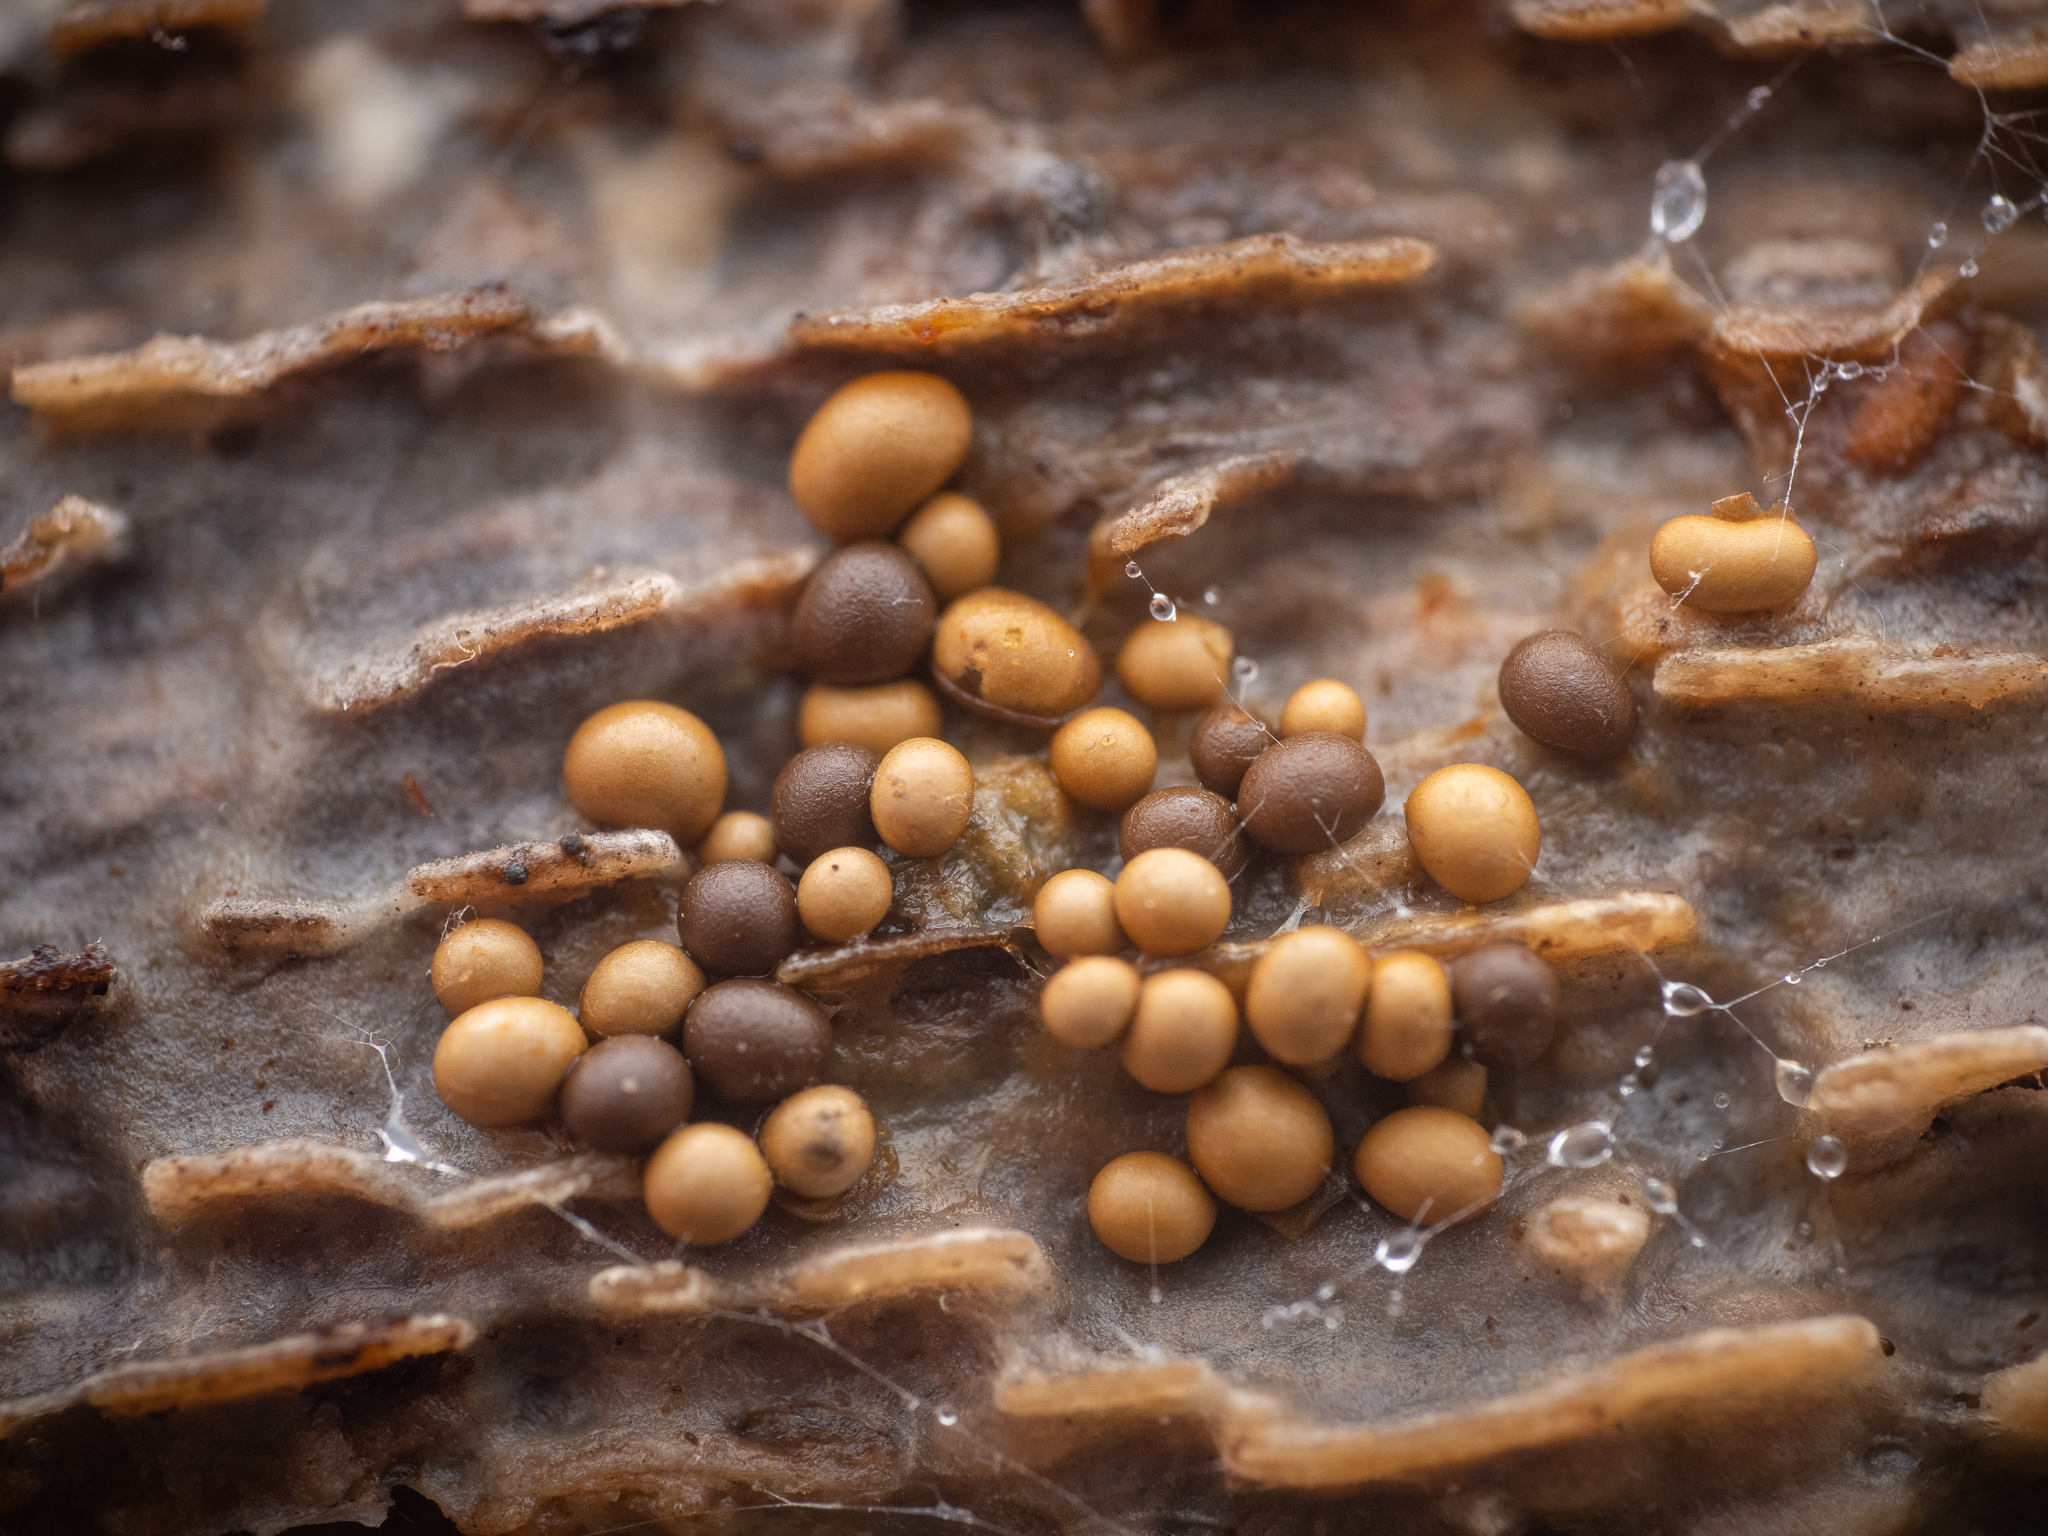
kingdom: Protozoa
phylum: Mycetozoa
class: Myxomycetes
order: Trichiales
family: Trichiaceae
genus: Trichia
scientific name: Trichia varia
